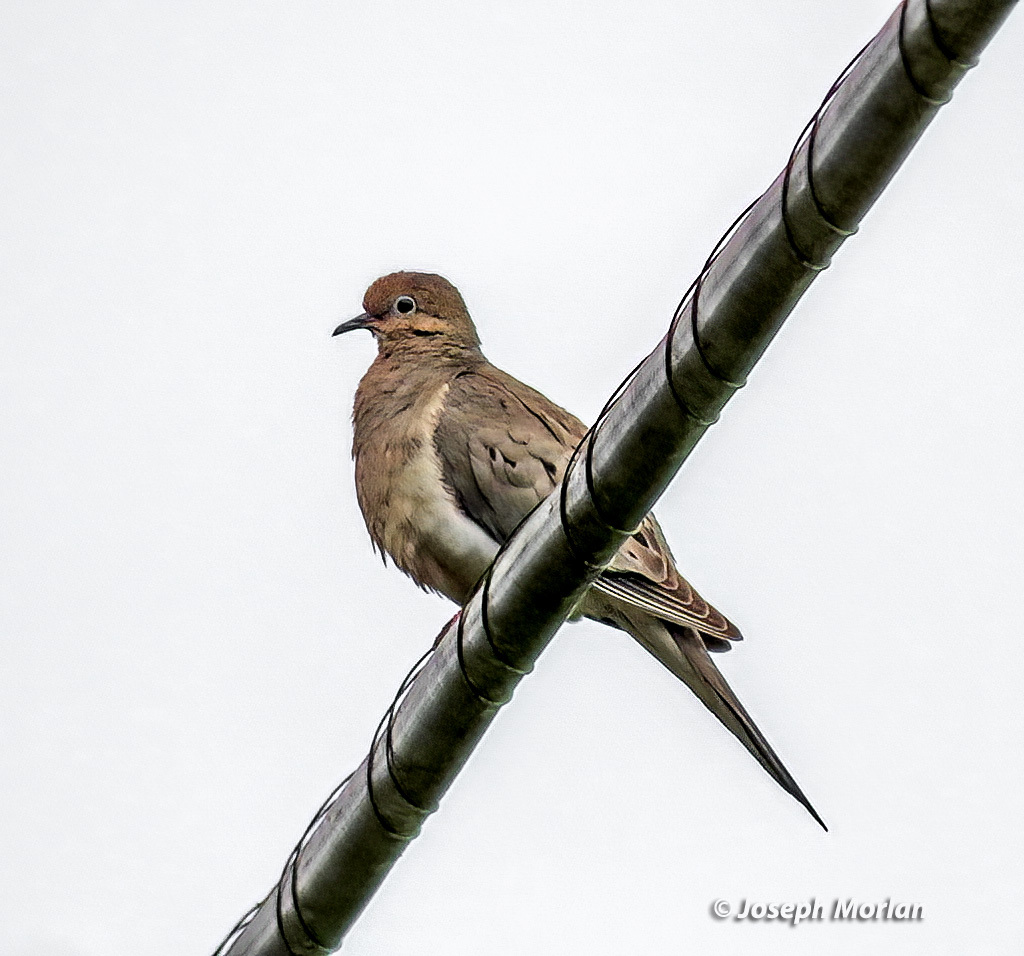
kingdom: Animalia
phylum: Chordata
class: Aves
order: Columbiformes
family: Columbidae
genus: Zenaida
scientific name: Zenaida macroura
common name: Mourning dove
